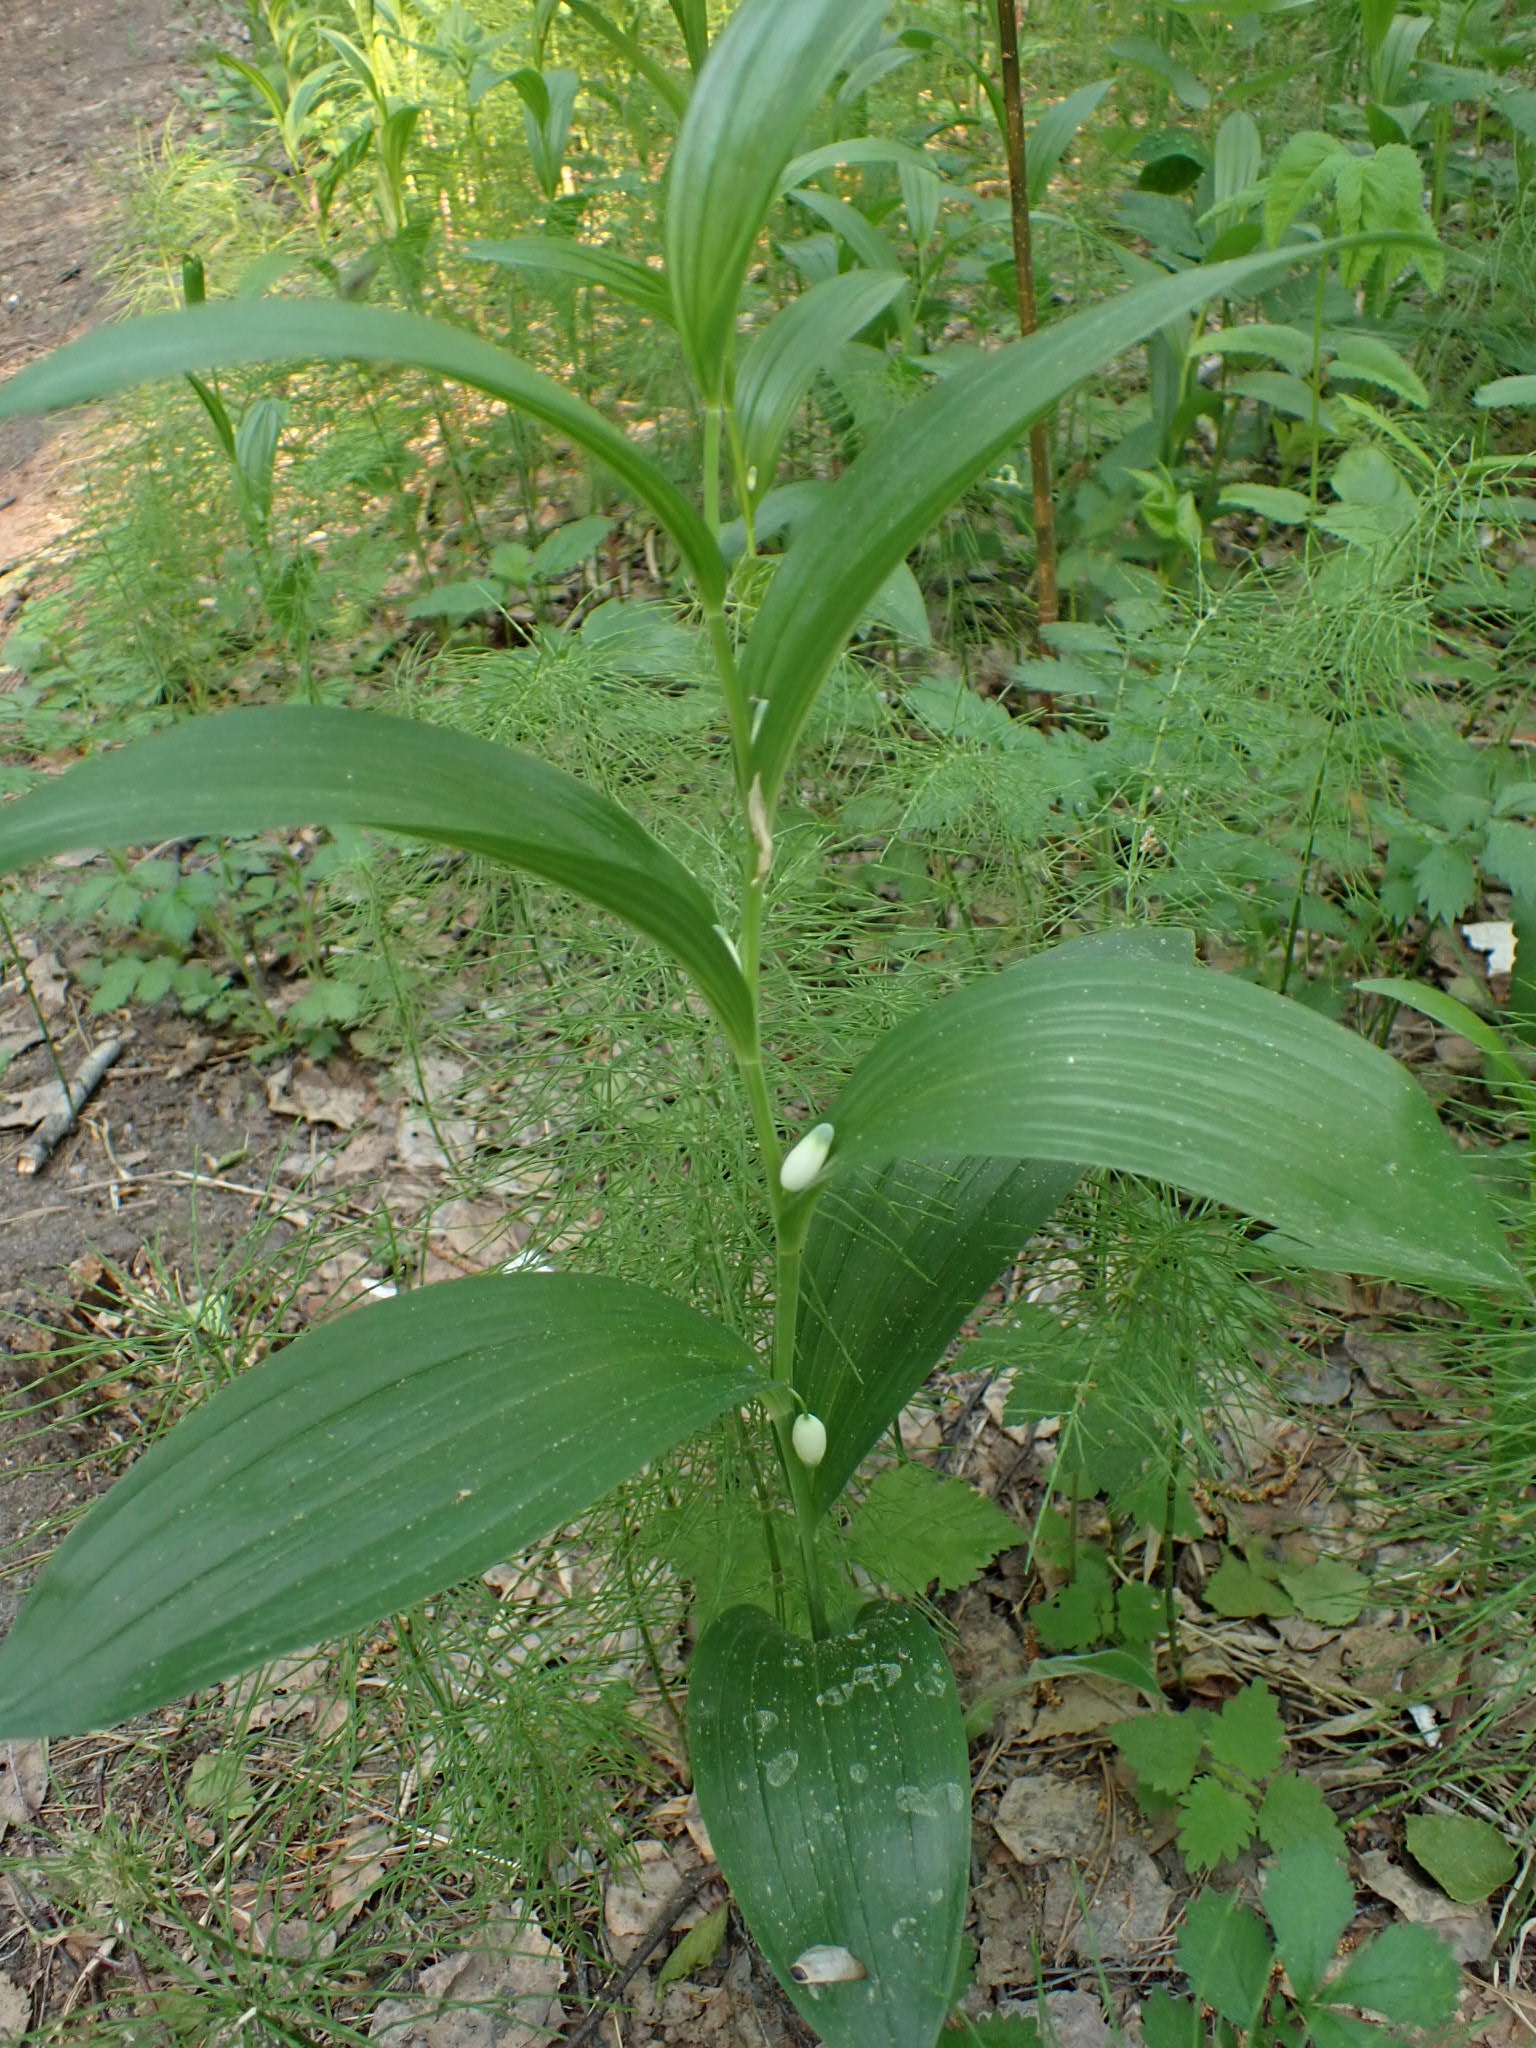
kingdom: Plantae
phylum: Tracheophyta
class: Liliopsida
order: Asparagales
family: Asparagaceae
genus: Polygonatum
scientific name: Polygonatum humile
